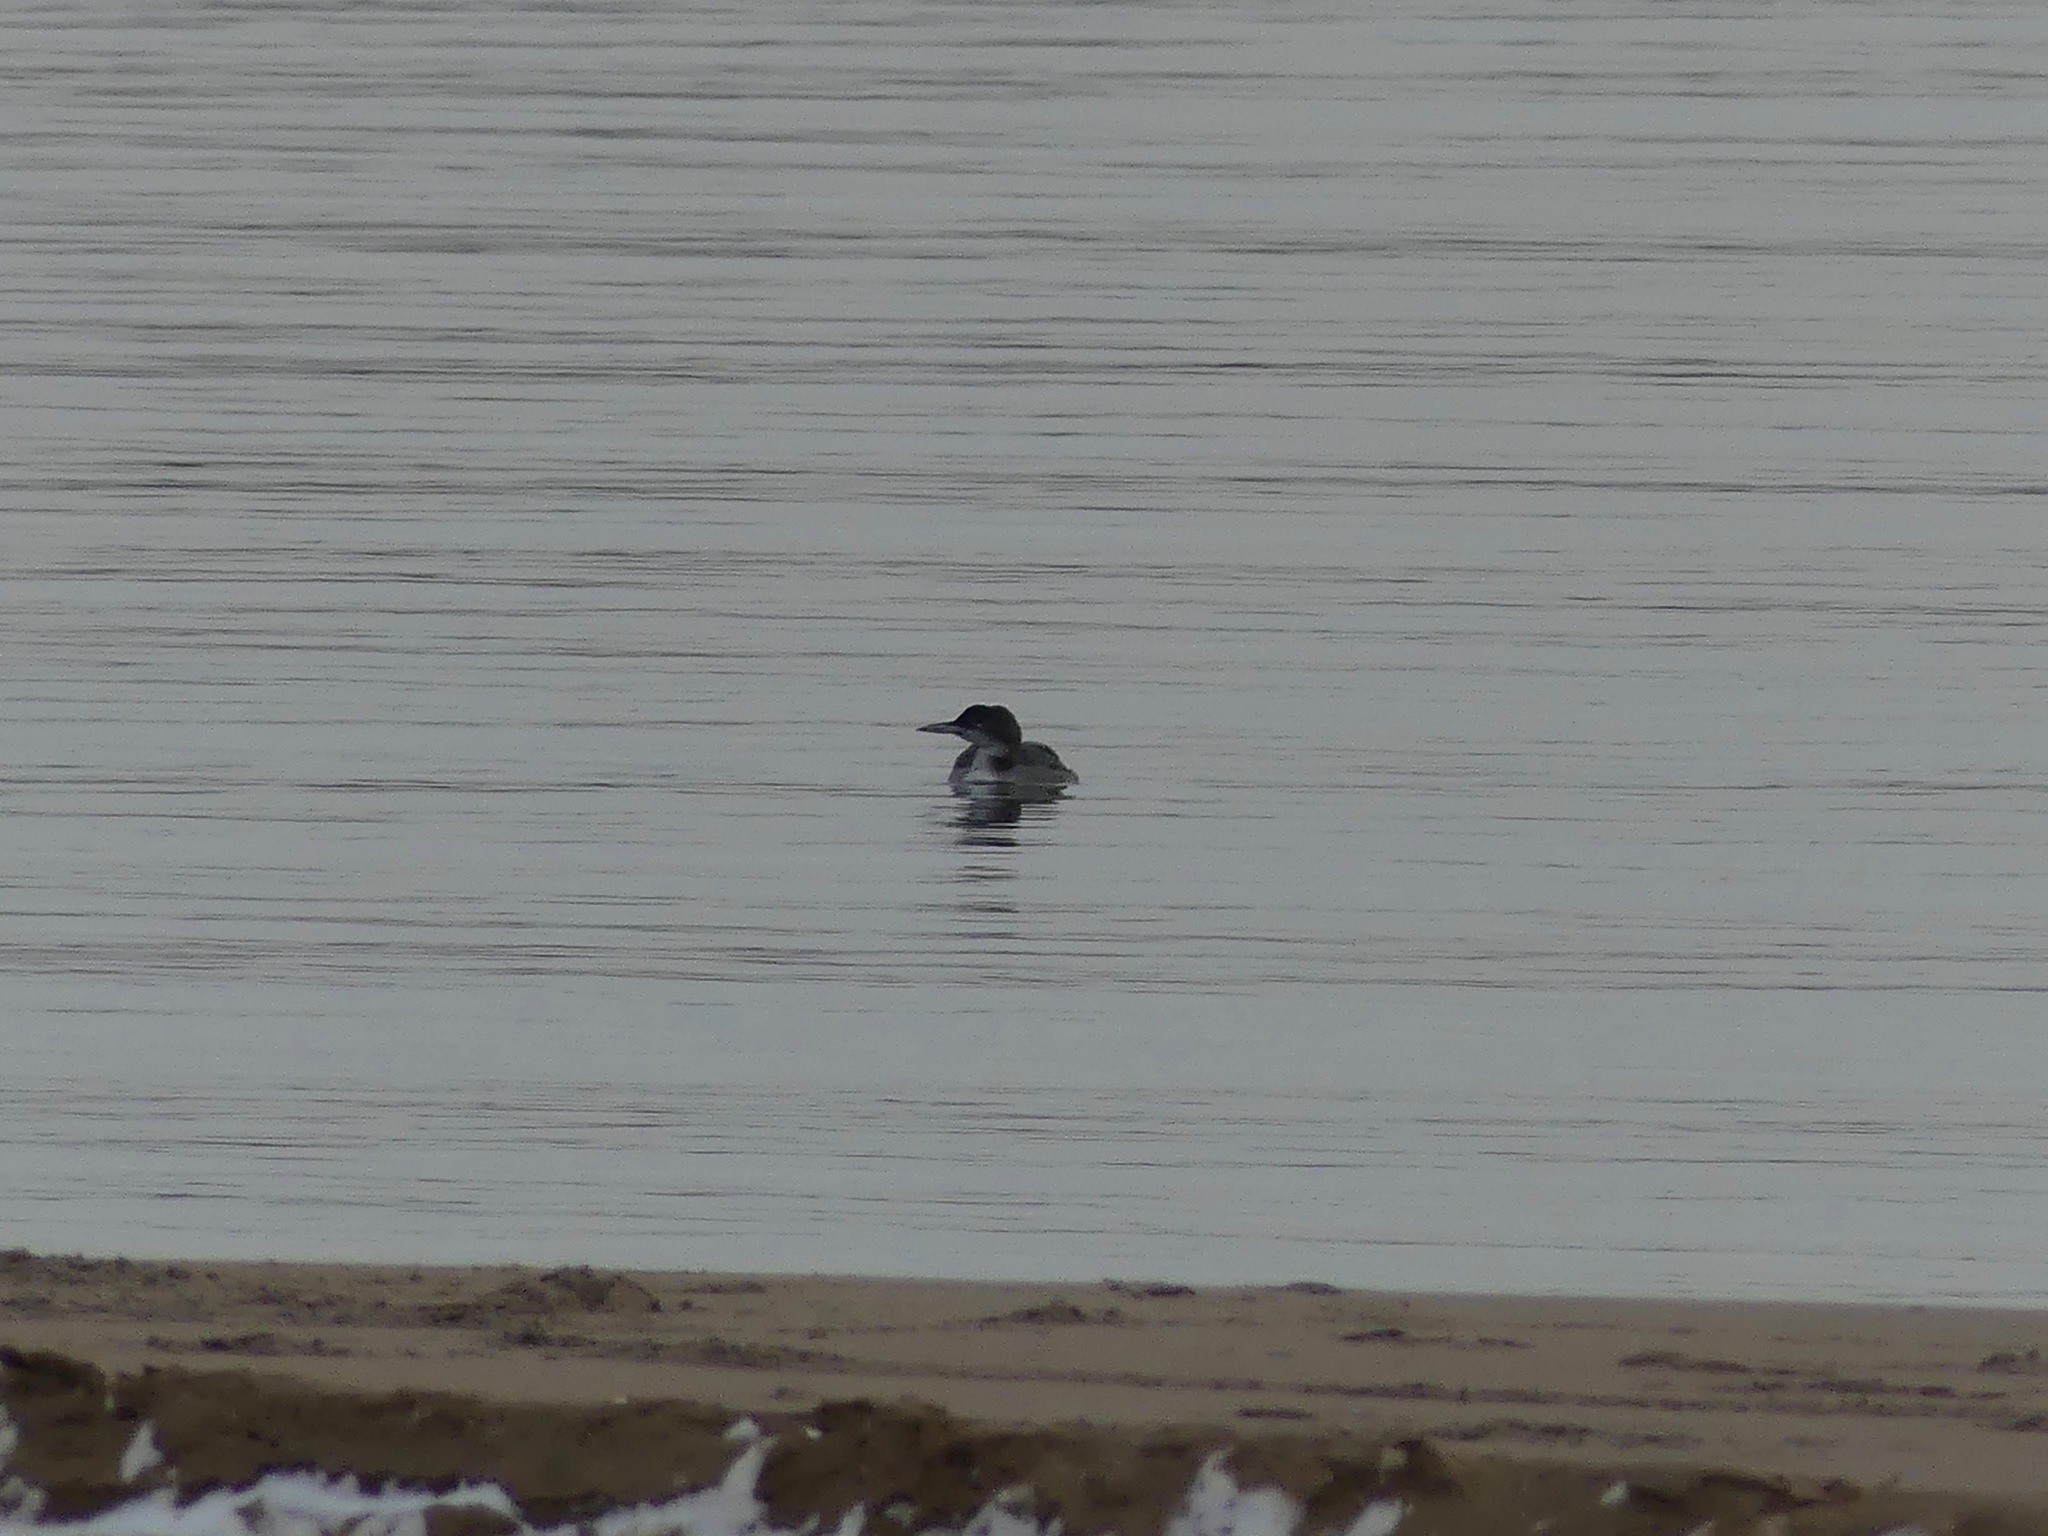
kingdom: Animalia
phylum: Chordata
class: Aves
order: Gaviiformes
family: Gaviidae
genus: Gavia
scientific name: Gavia immer
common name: Common loon
